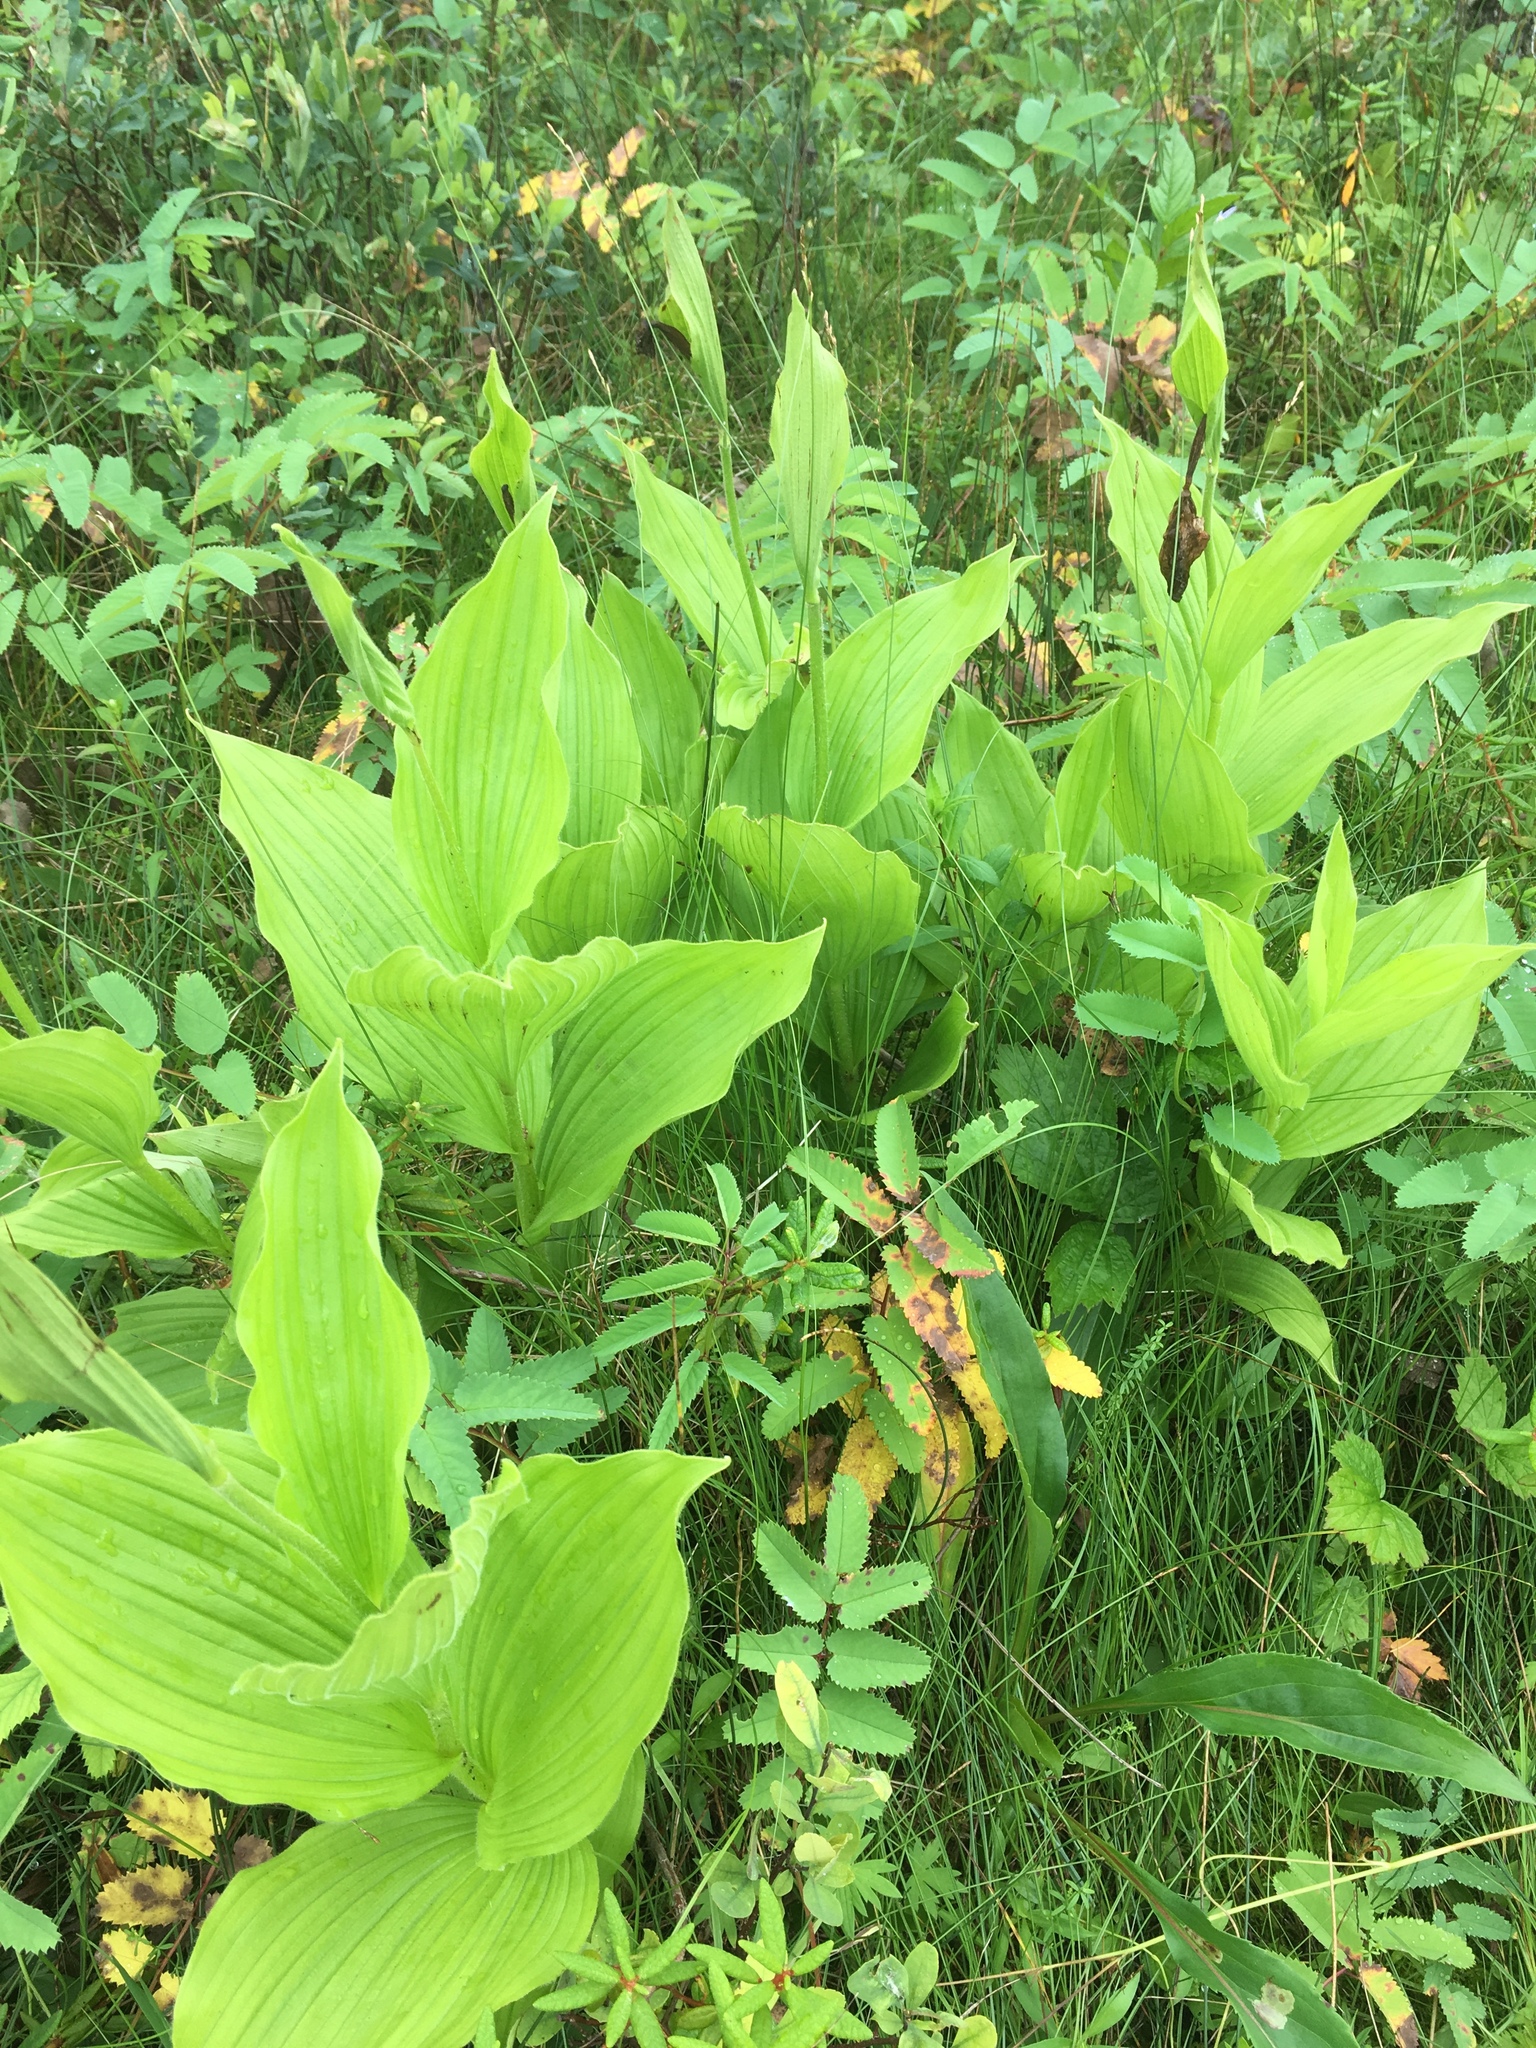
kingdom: Plantae
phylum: Tracheophyta
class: Liliopsida
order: Asparagales
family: Orchidaceae
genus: Cypripedium
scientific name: Cypripedium reginae
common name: Queen lady's-slipper
